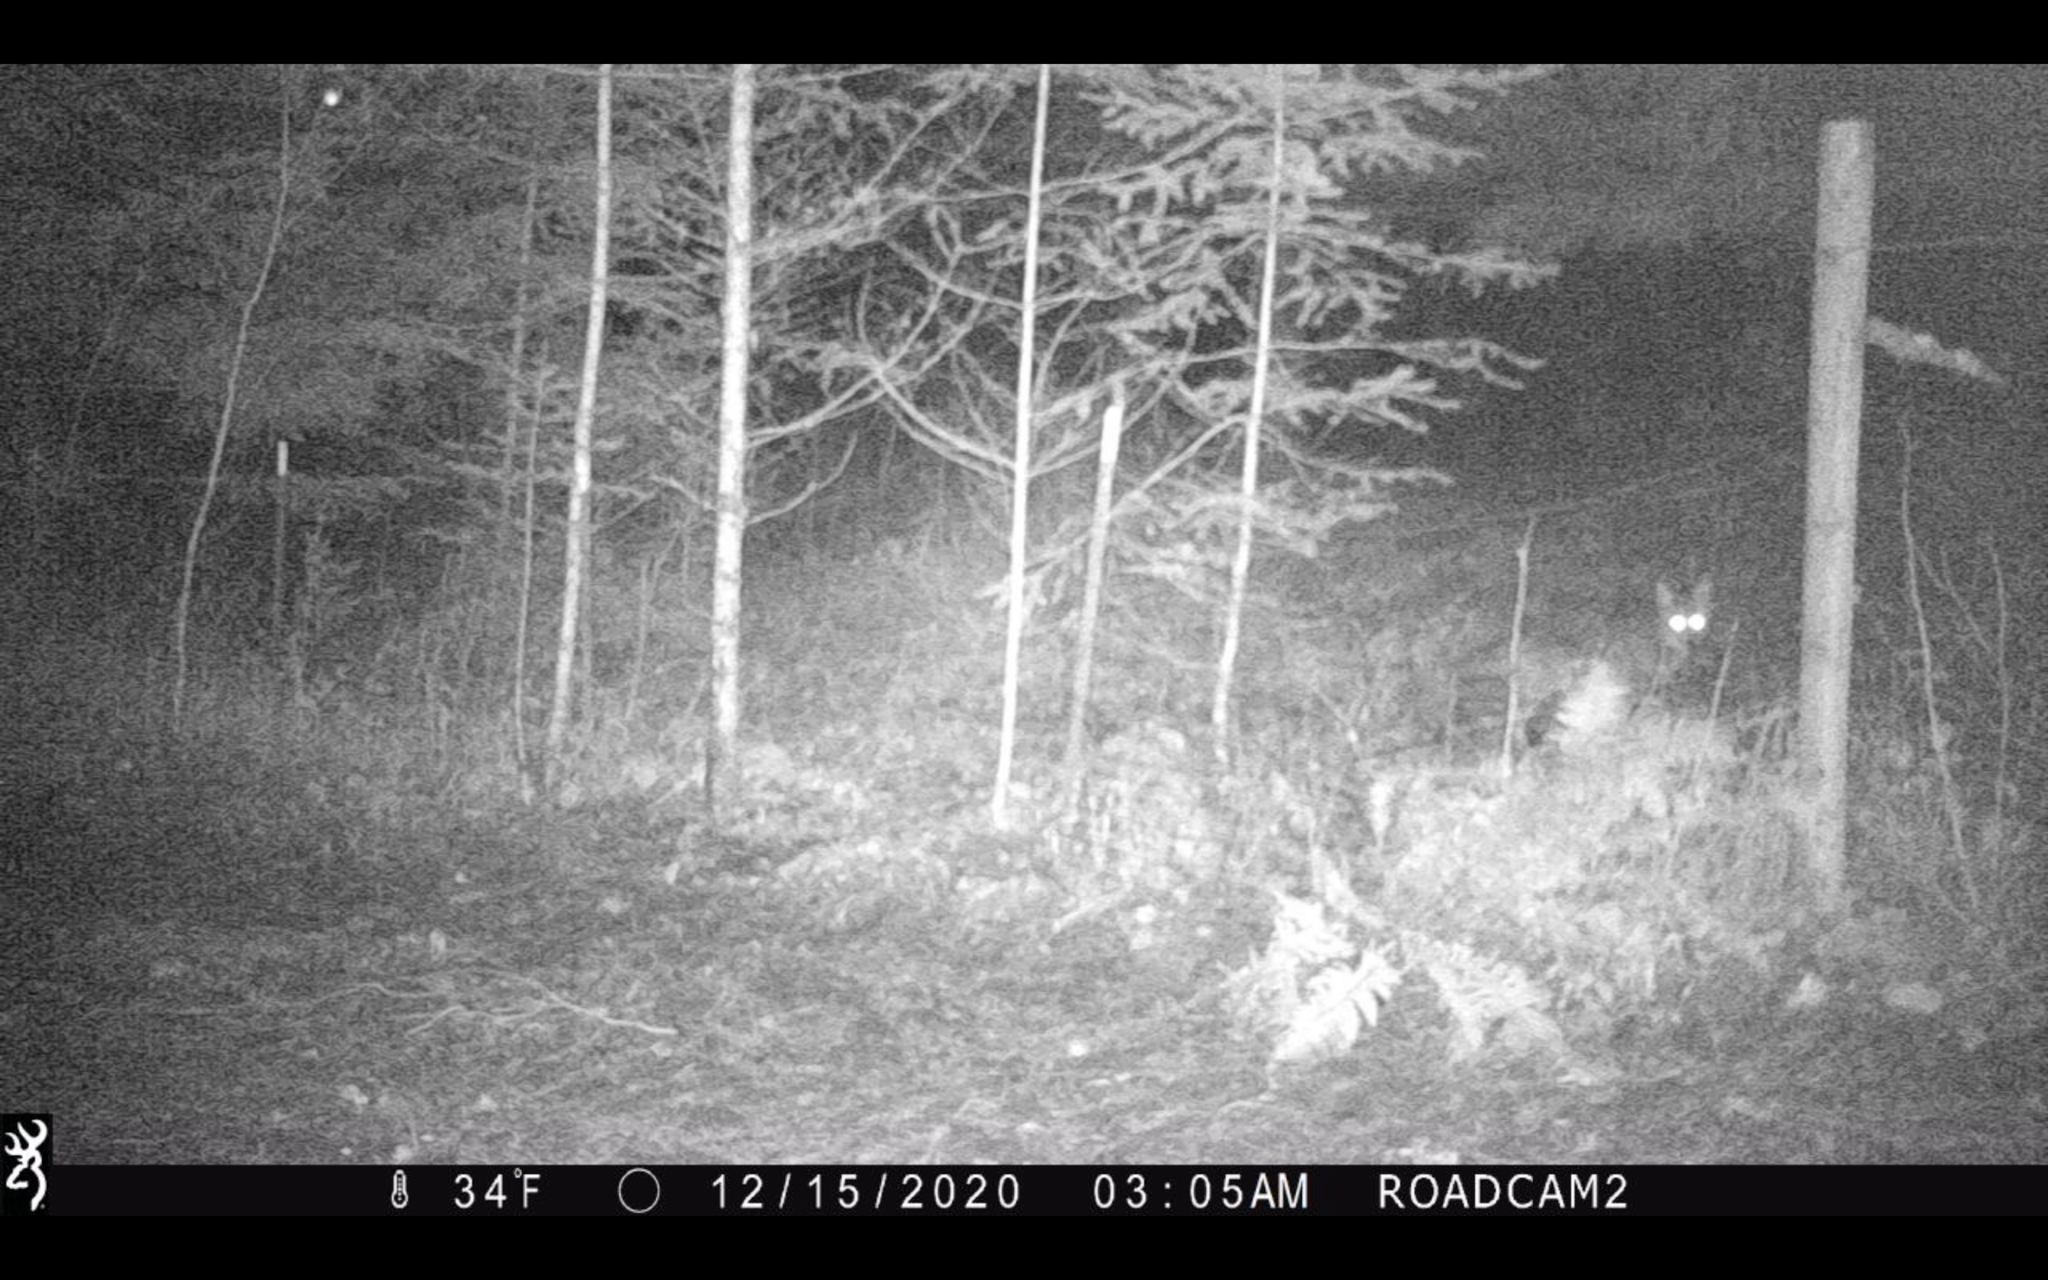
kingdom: Animalia
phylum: Chordata
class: Mammalia
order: Carnivora
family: Canidae
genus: Canis
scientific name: Canis latrans
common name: Coyote
